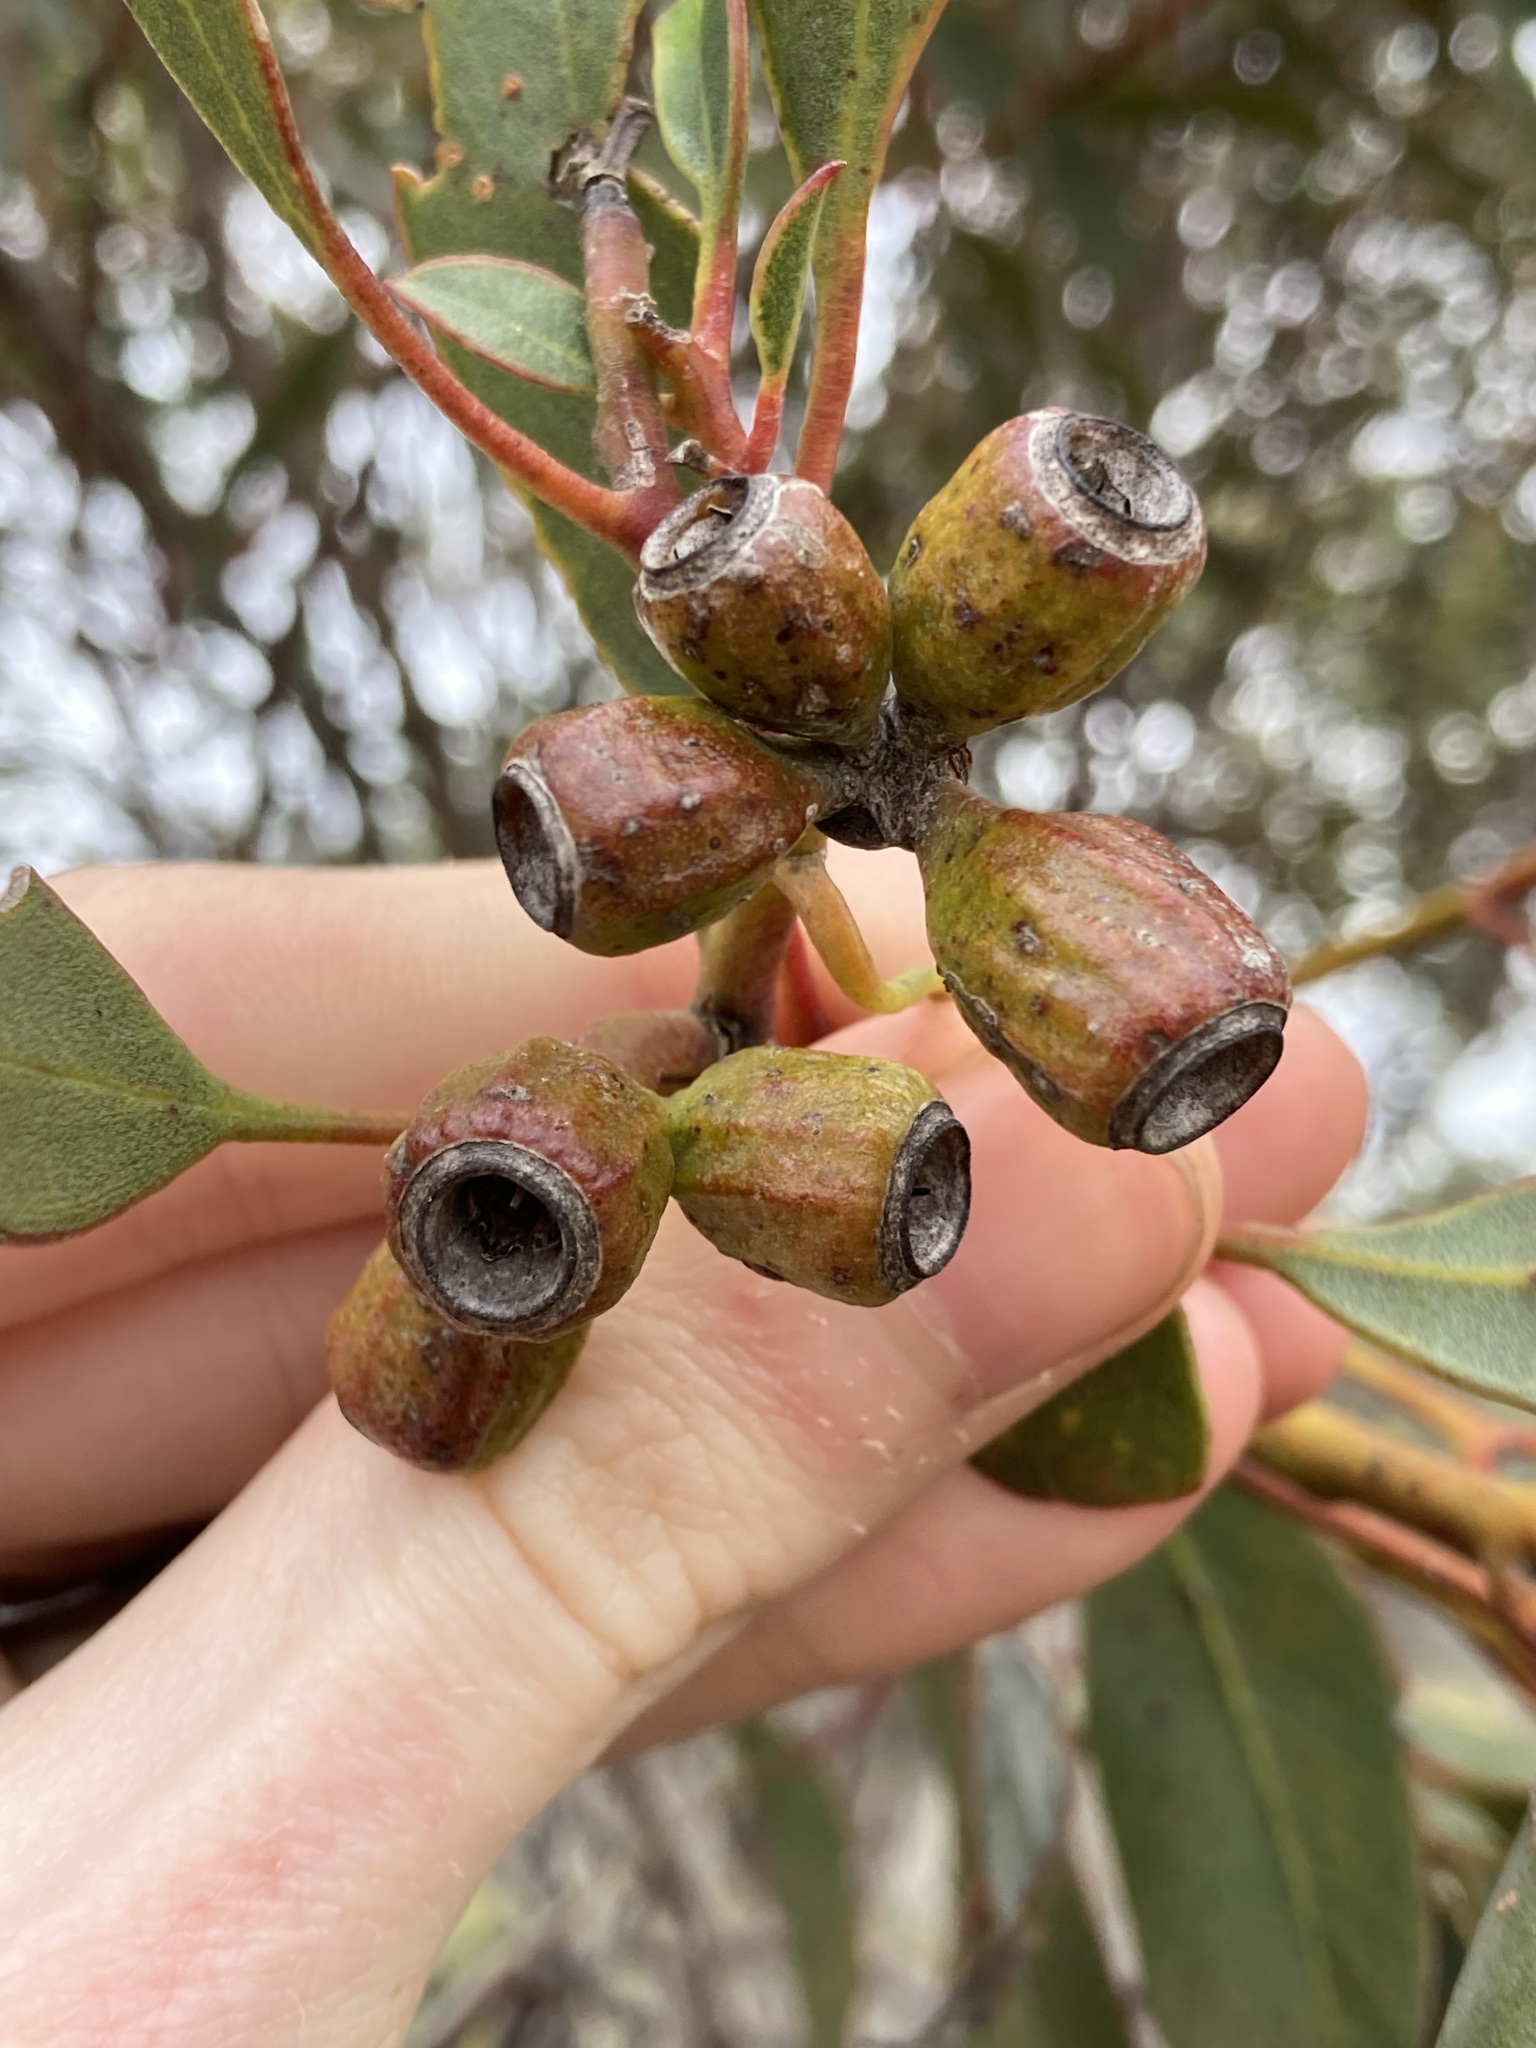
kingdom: Plantae
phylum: Tracheophyta
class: Magnoliopsida
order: Myrtales
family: Myrtaceae
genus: Eucalyptus
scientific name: Eucalyptus incrassata
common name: Ridge-fruit mallee
